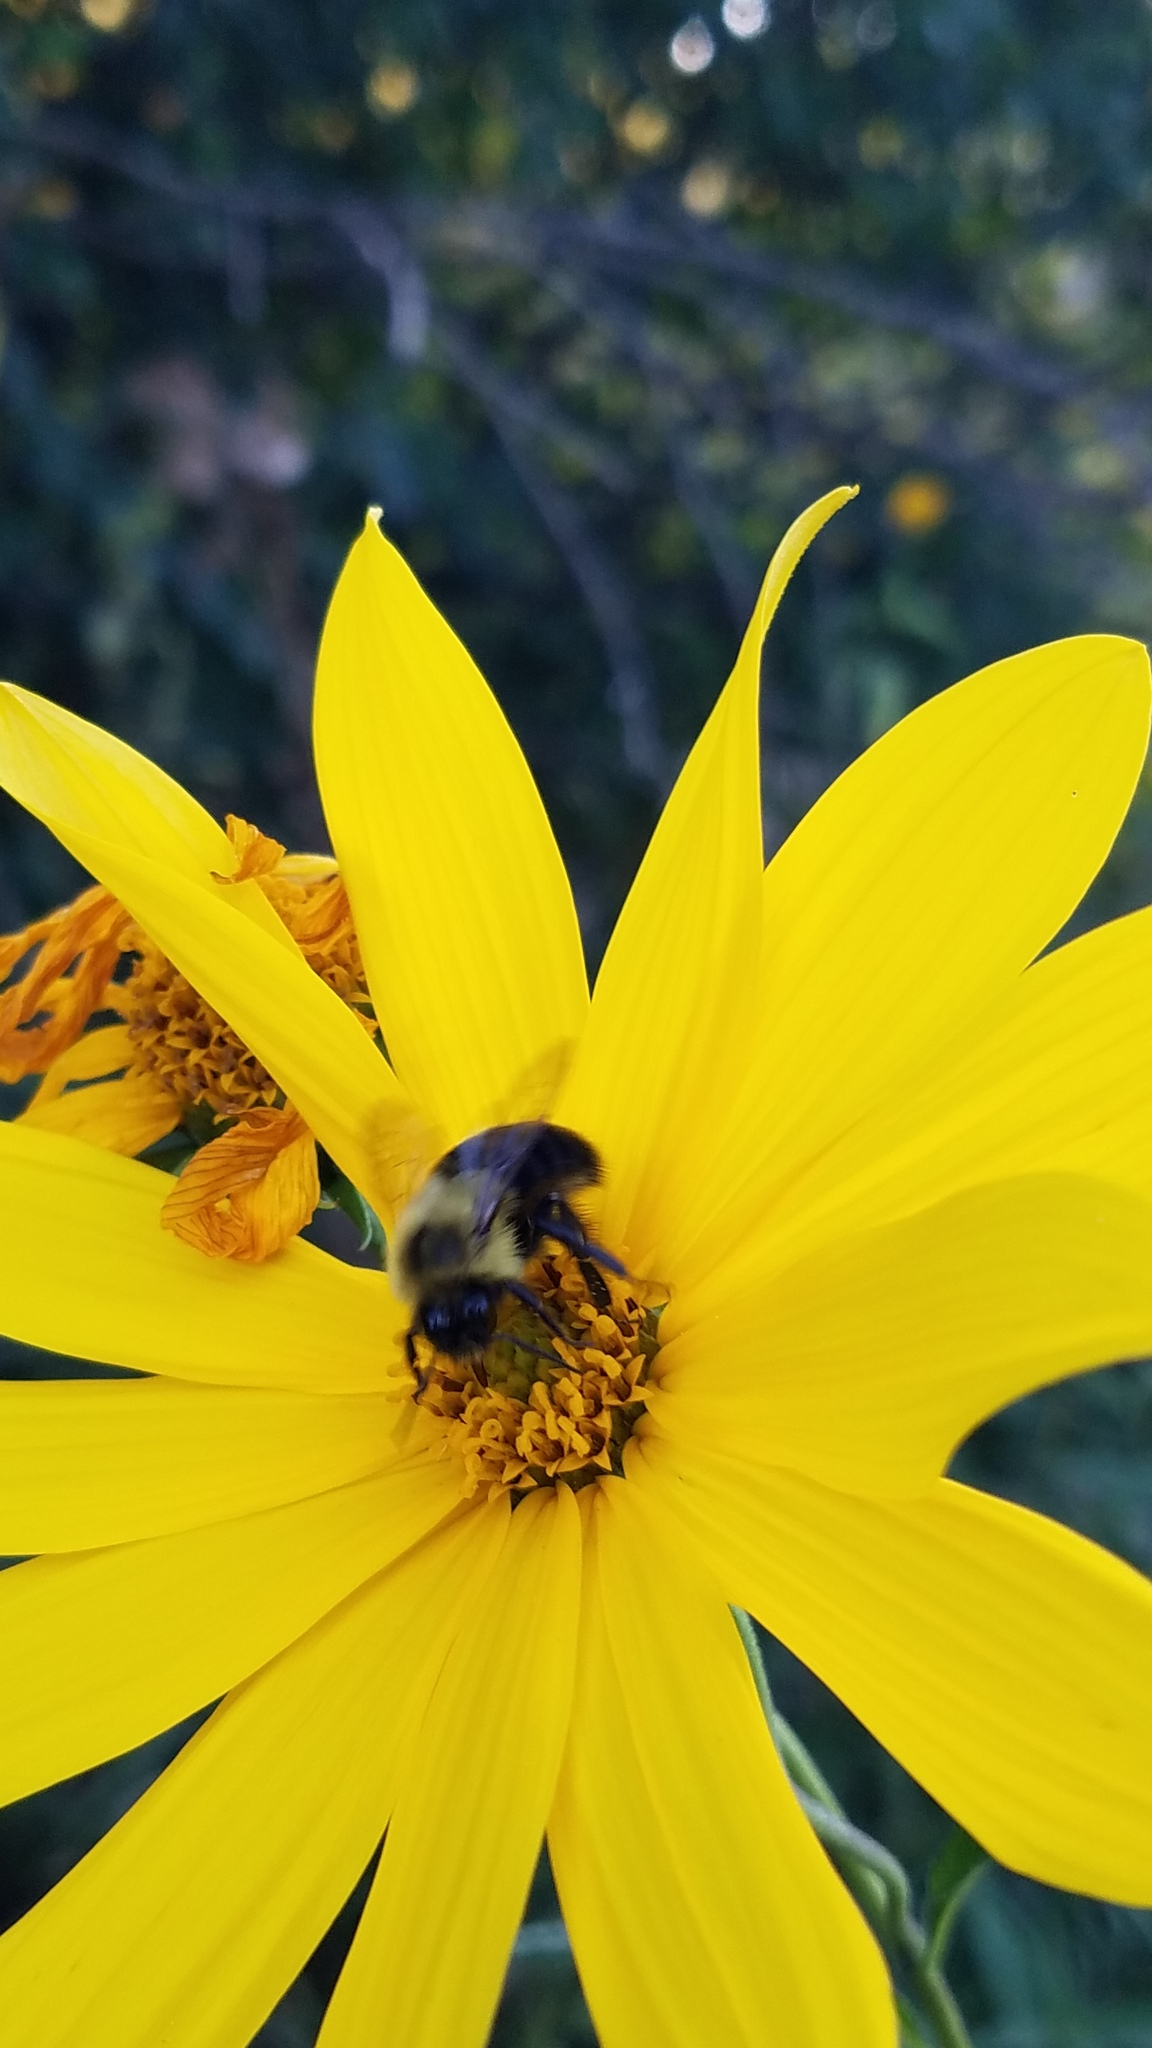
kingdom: Animalia
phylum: Arthropoda
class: Insecta
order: Hymenoptera
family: Apidae
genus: Bombus
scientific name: Bombus impatiens
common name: Common eastern bumble bee
